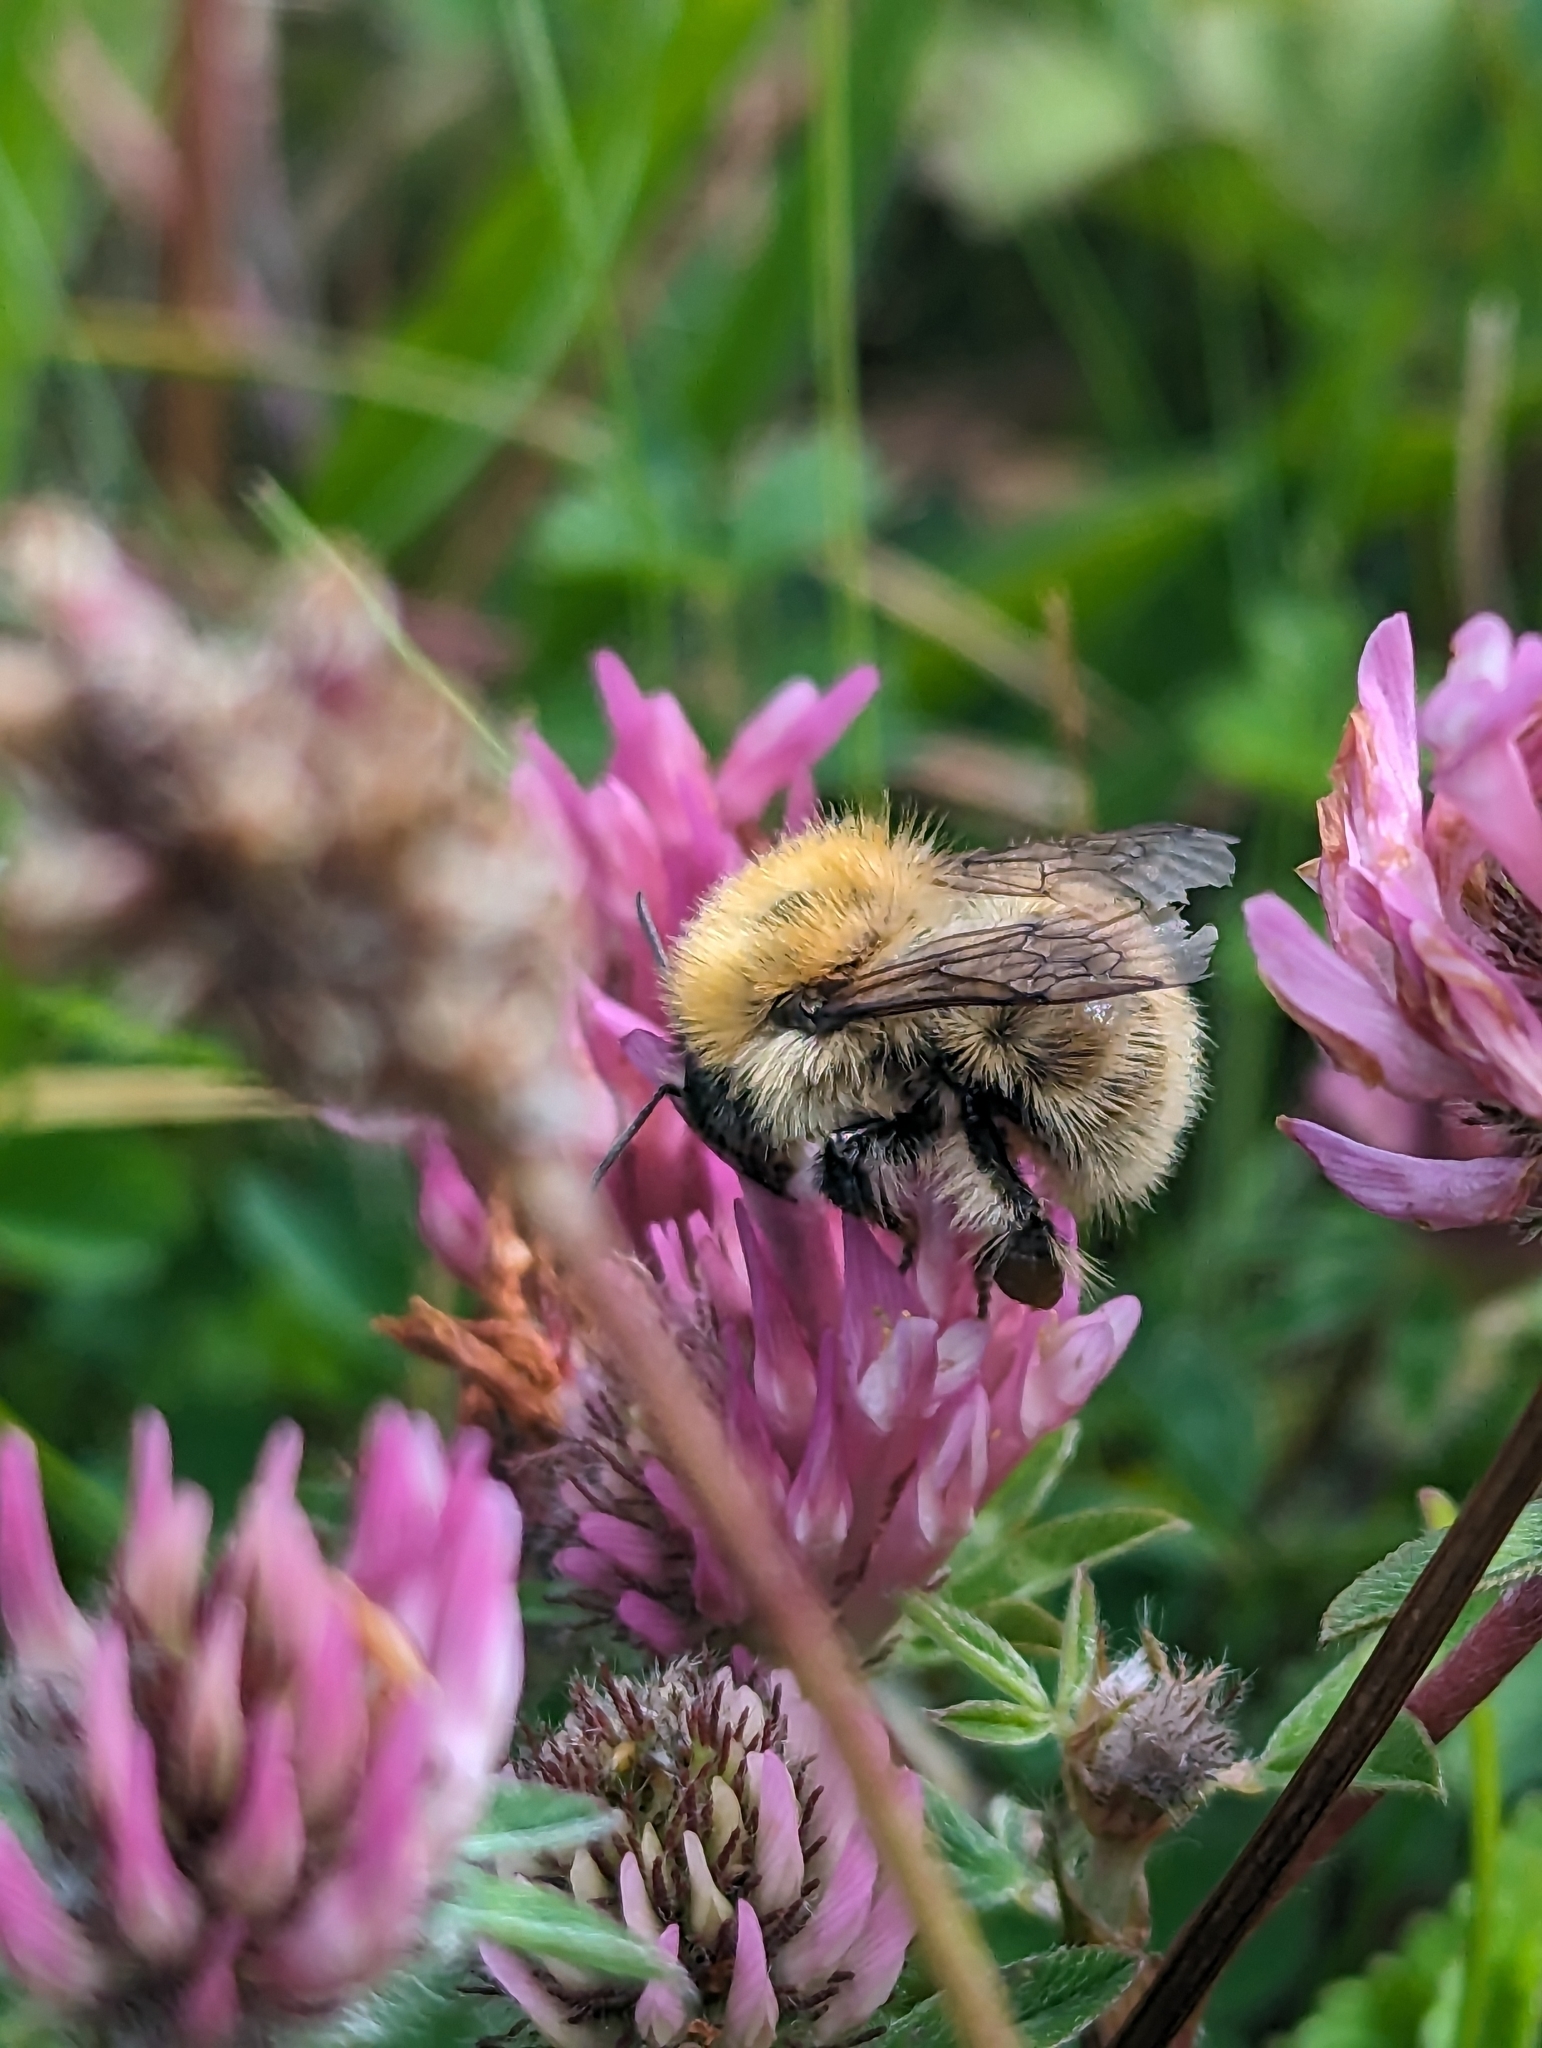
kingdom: Animalia
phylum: Arthropoda
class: Insecta
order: Hymenoptera
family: Apidae
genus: Bombus
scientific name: Bombus pascuorum
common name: Common carder bee
